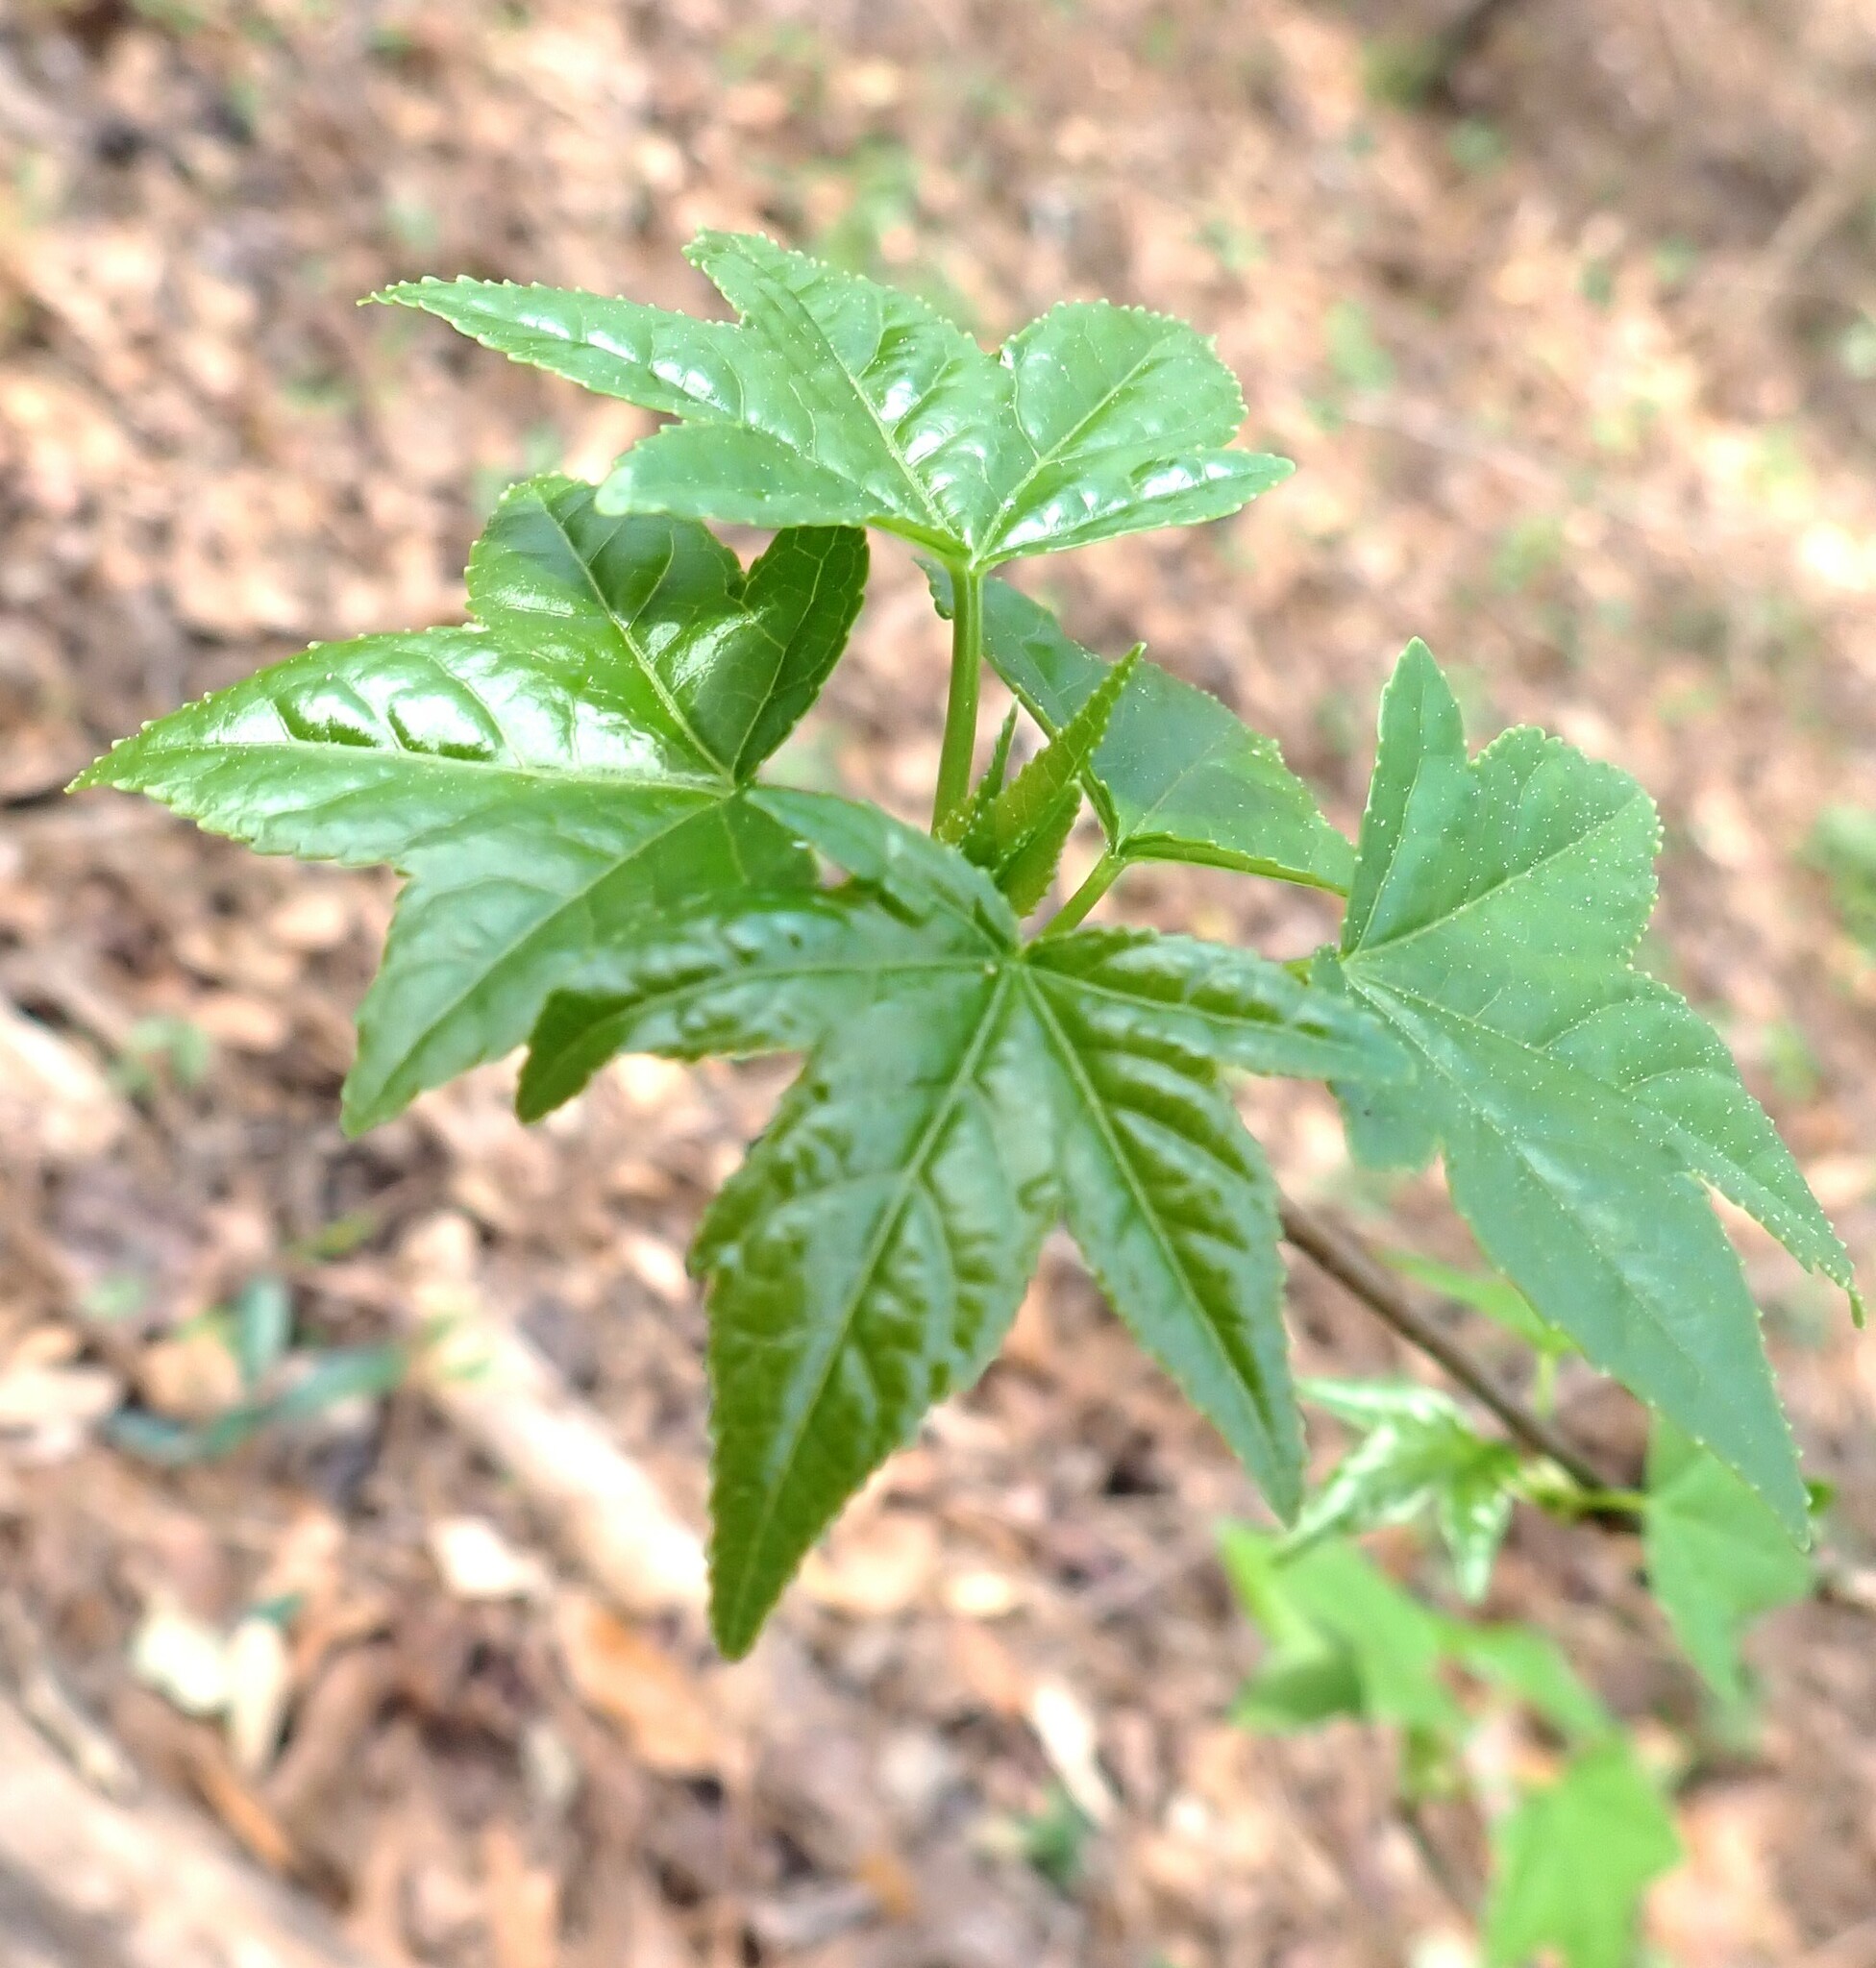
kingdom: Plantae
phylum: Tracheophyta
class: Magnoliopsida
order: Saxifragales
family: Altingiaceae
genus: Liquidambar
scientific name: Liquidambar styraciflua
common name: Sweet gum
